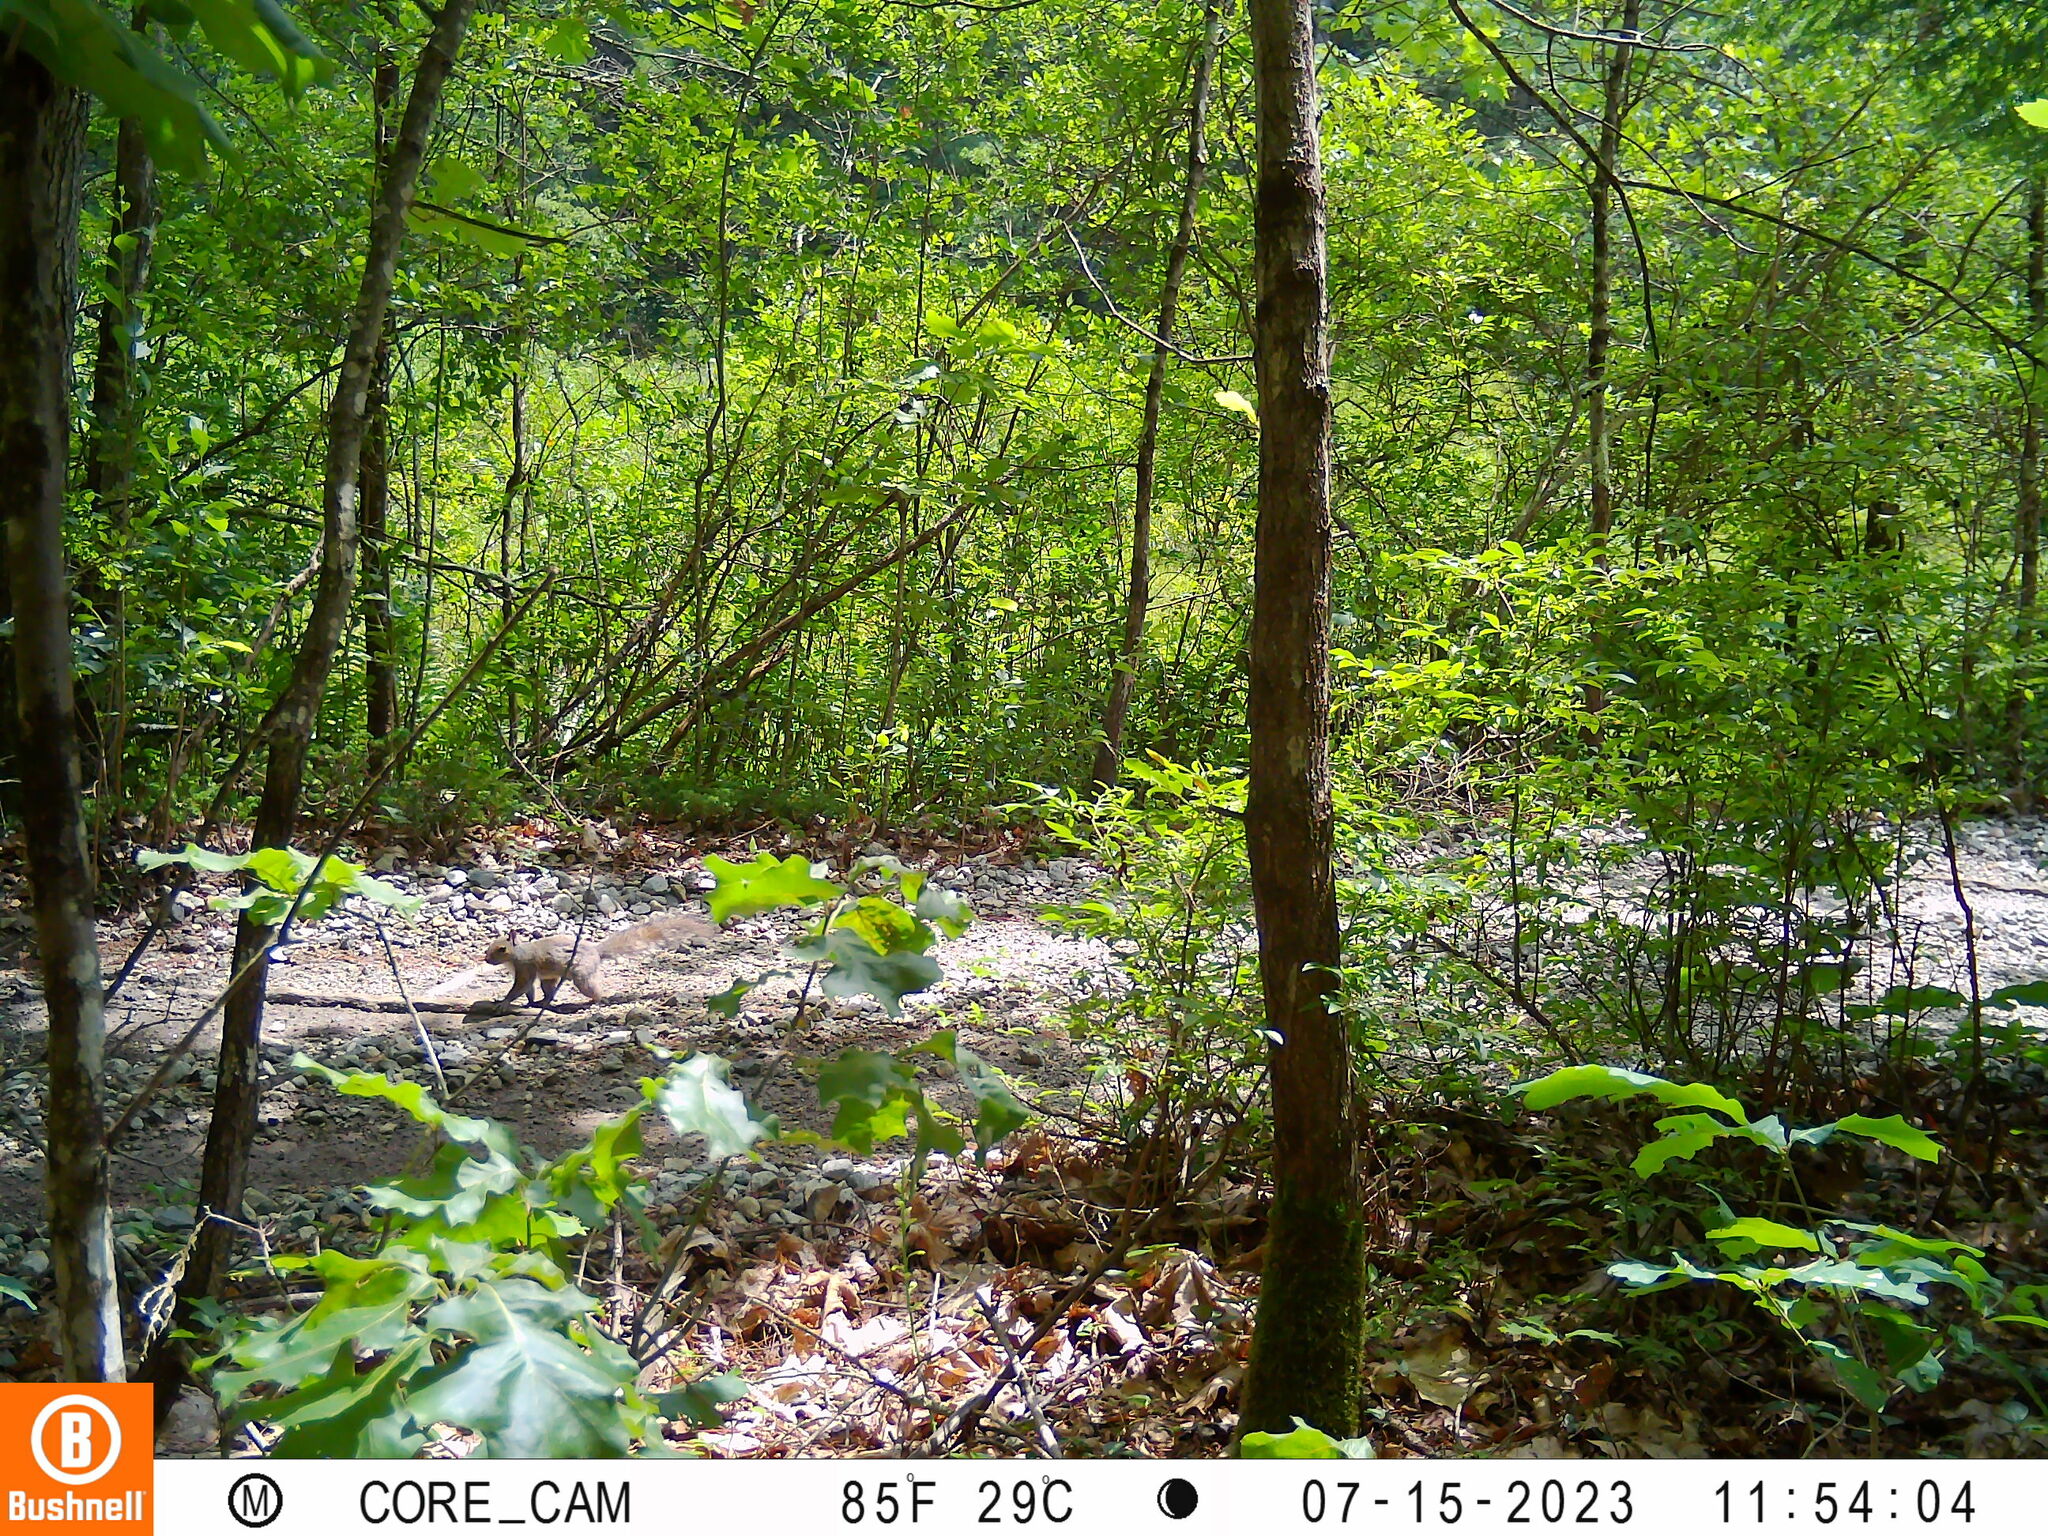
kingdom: Animalia
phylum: Chordata
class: Mammalia
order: Rodentia
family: Sciuridae
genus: Sciurus
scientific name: Sciurus carolinensis
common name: Eastern gray squirrel
